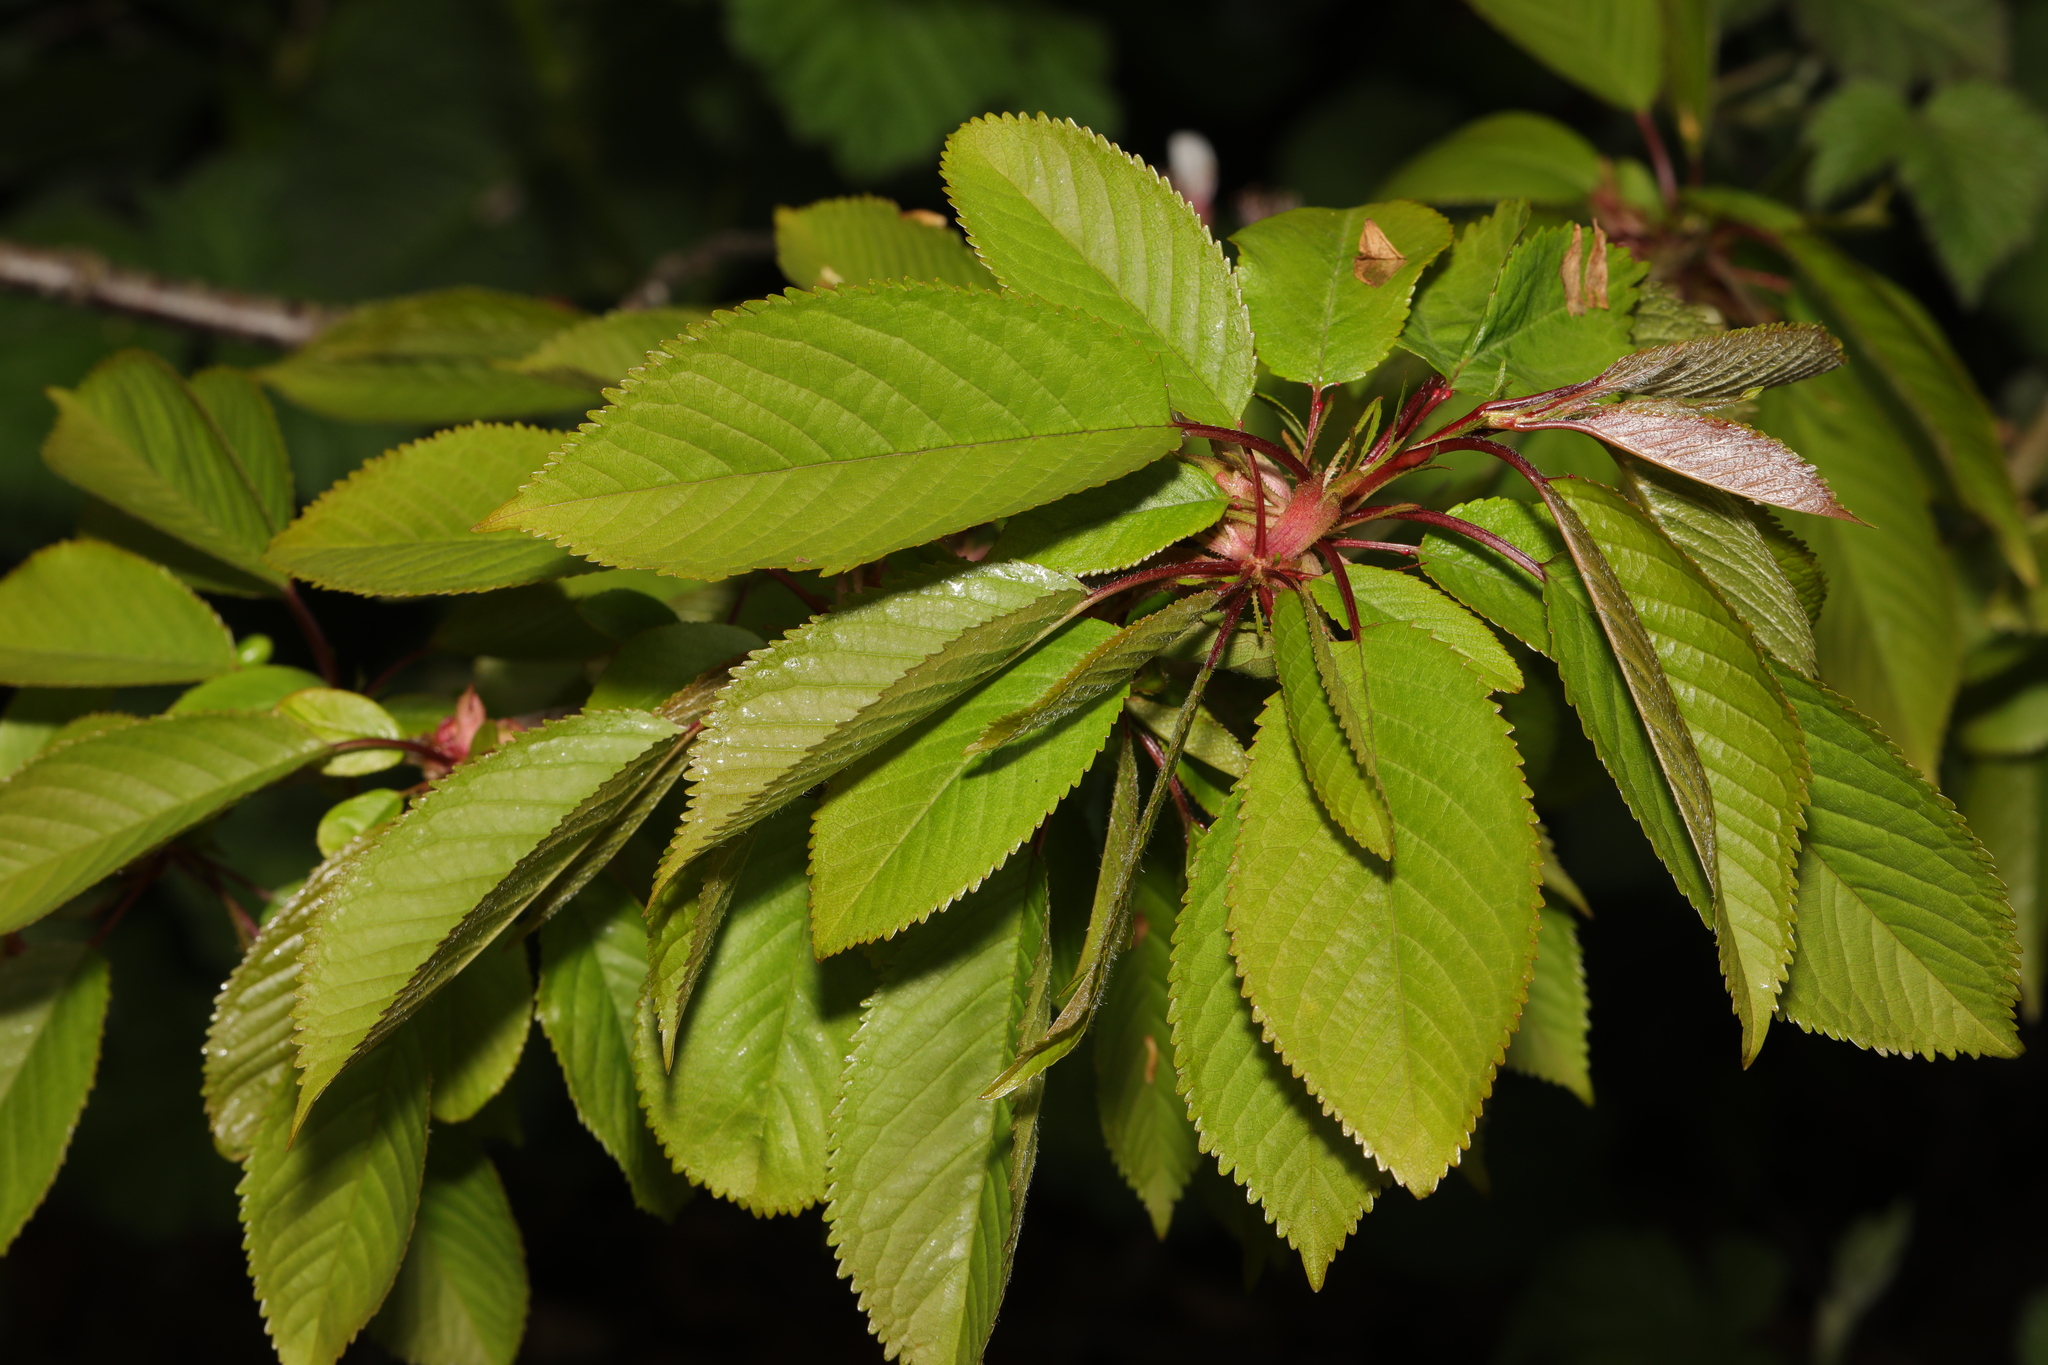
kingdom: Plantae
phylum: Tracheophyta
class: Magnoliopsida
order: Rosales
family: Rosaceae
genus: Prunus
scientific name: Prunus avium
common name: Sweet cherry
